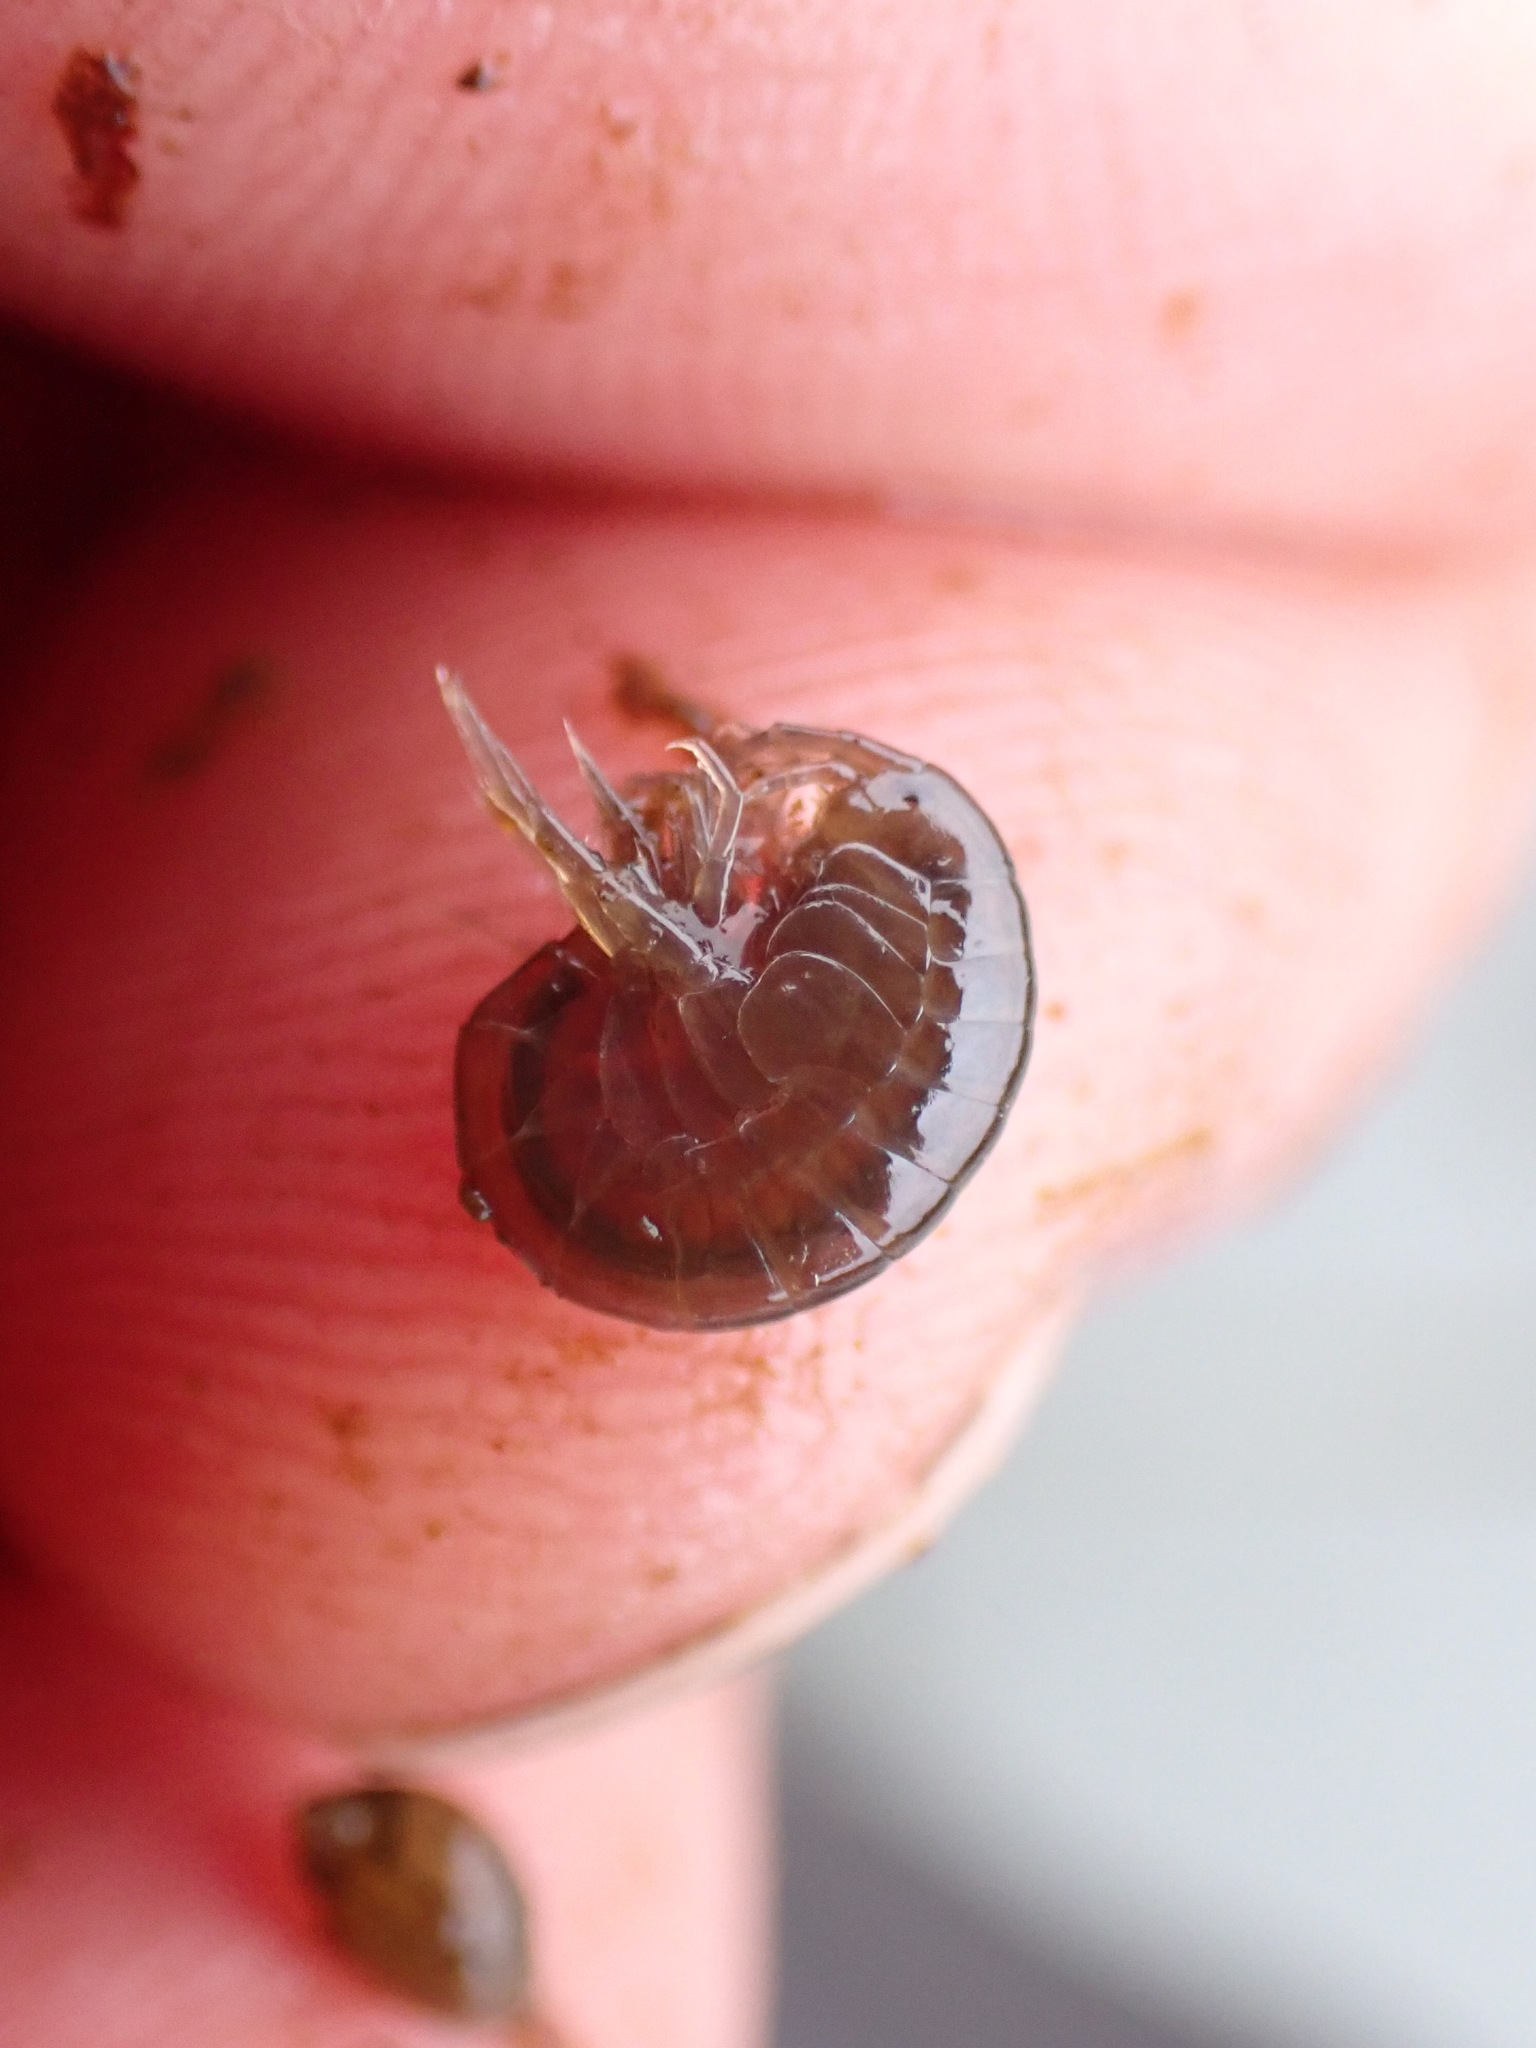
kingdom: Animalia
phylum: Arthropoda
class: Malacostraca
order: Amphipoda
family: Gammaridae
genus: Gammarus
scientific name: Gammarus lacustris
